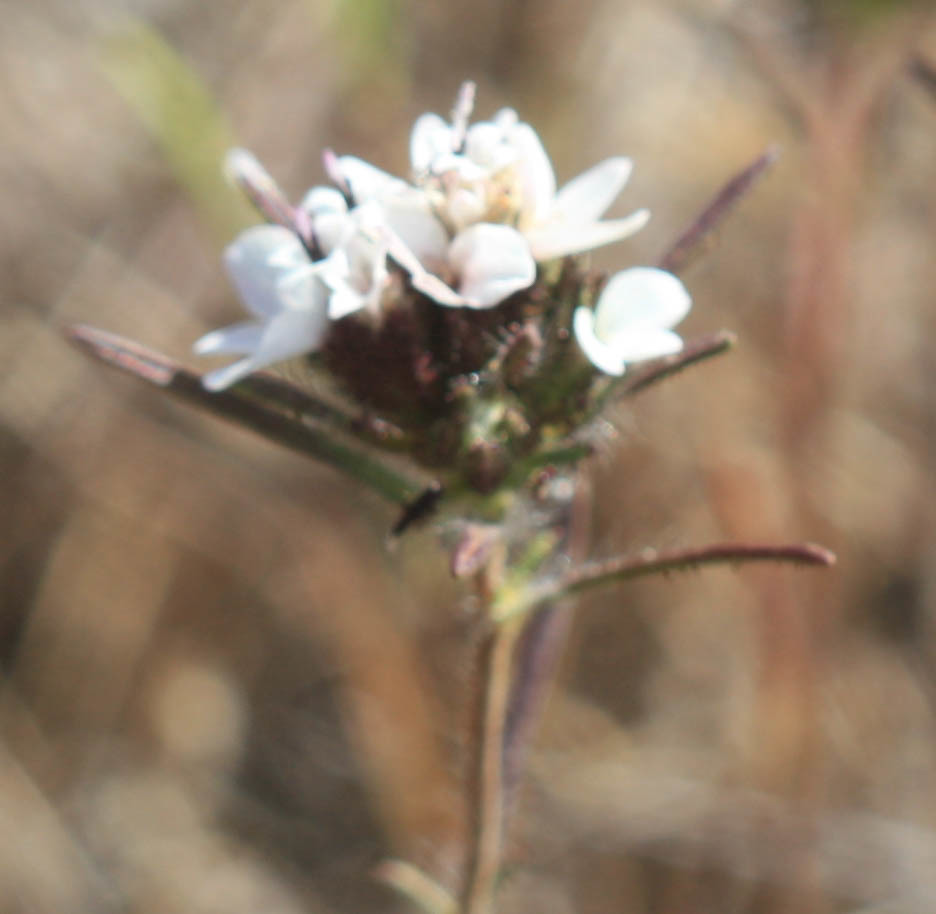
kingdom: Plantae
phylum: Tracheophyta
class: Magnoliopsida
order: Asterales
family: Asteraceae
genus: Calycadenia
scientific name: Calycadenia multiglandulosa
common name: Sticky calycadenia
